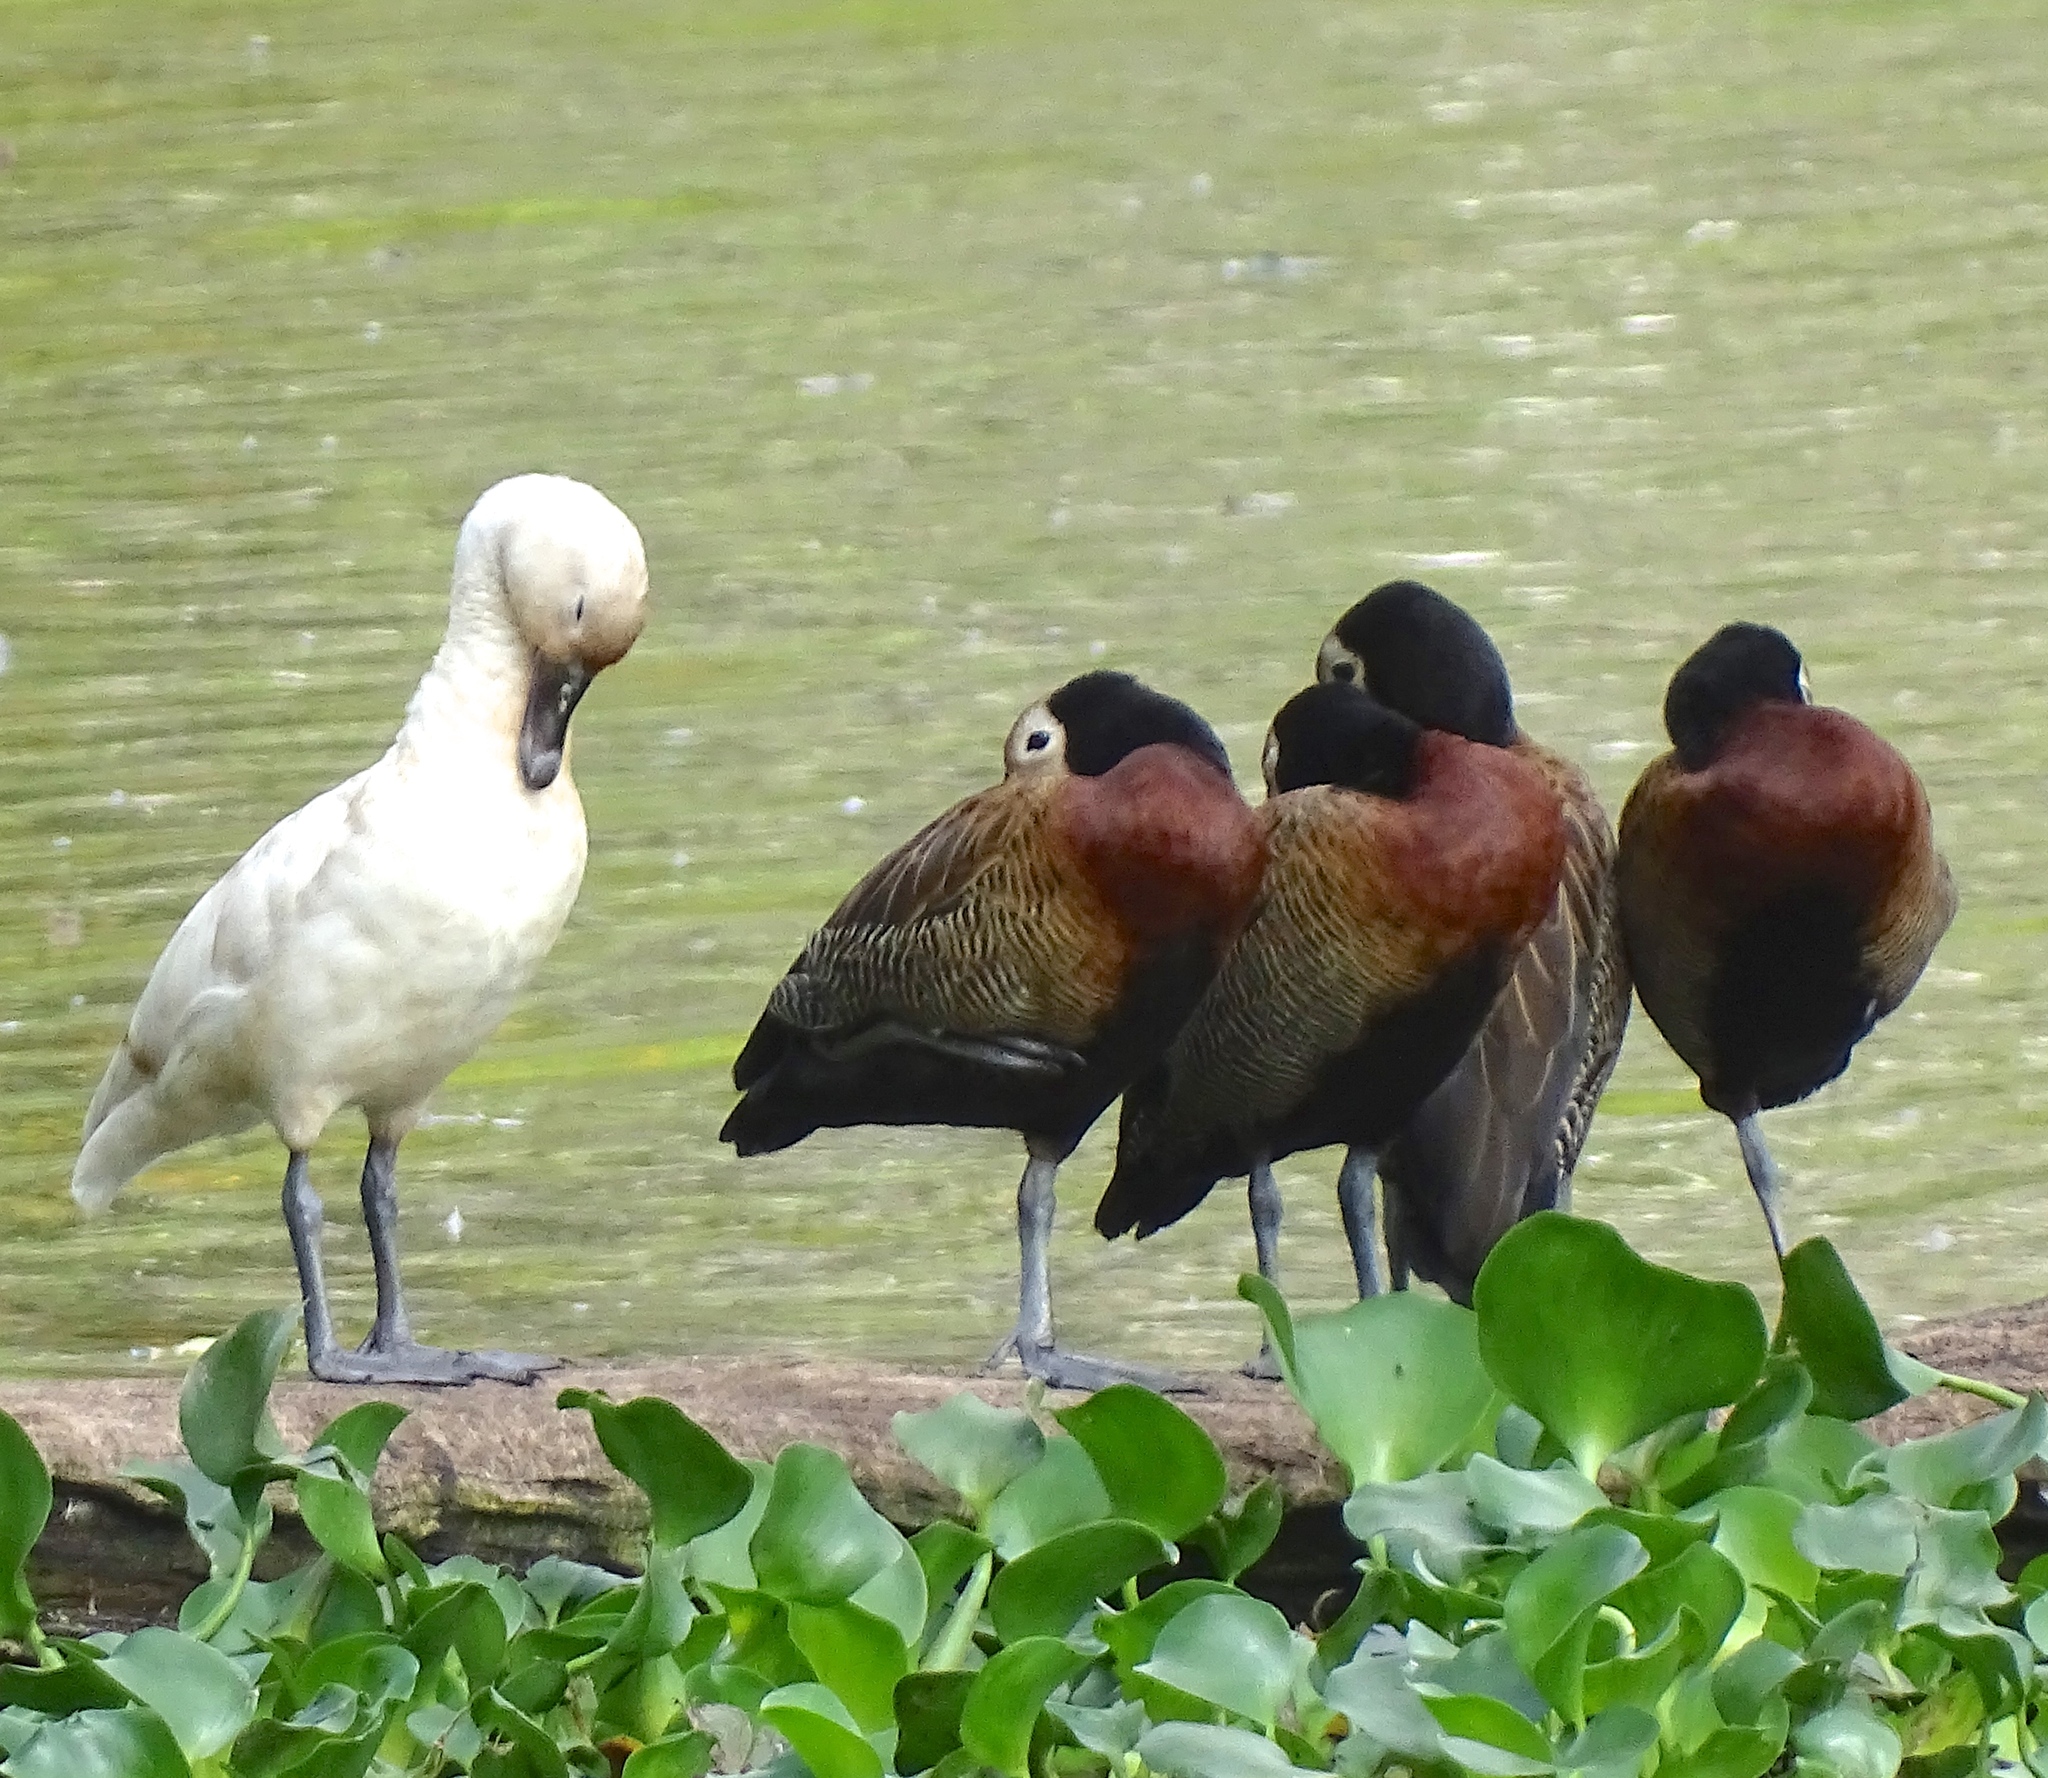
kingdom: Animalia
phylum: Chordata
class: Aves
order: Anseriformes
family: Anatidae
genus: Dendrocygna
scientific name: Dendrocygna viduata
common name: White-faced whistling duck
